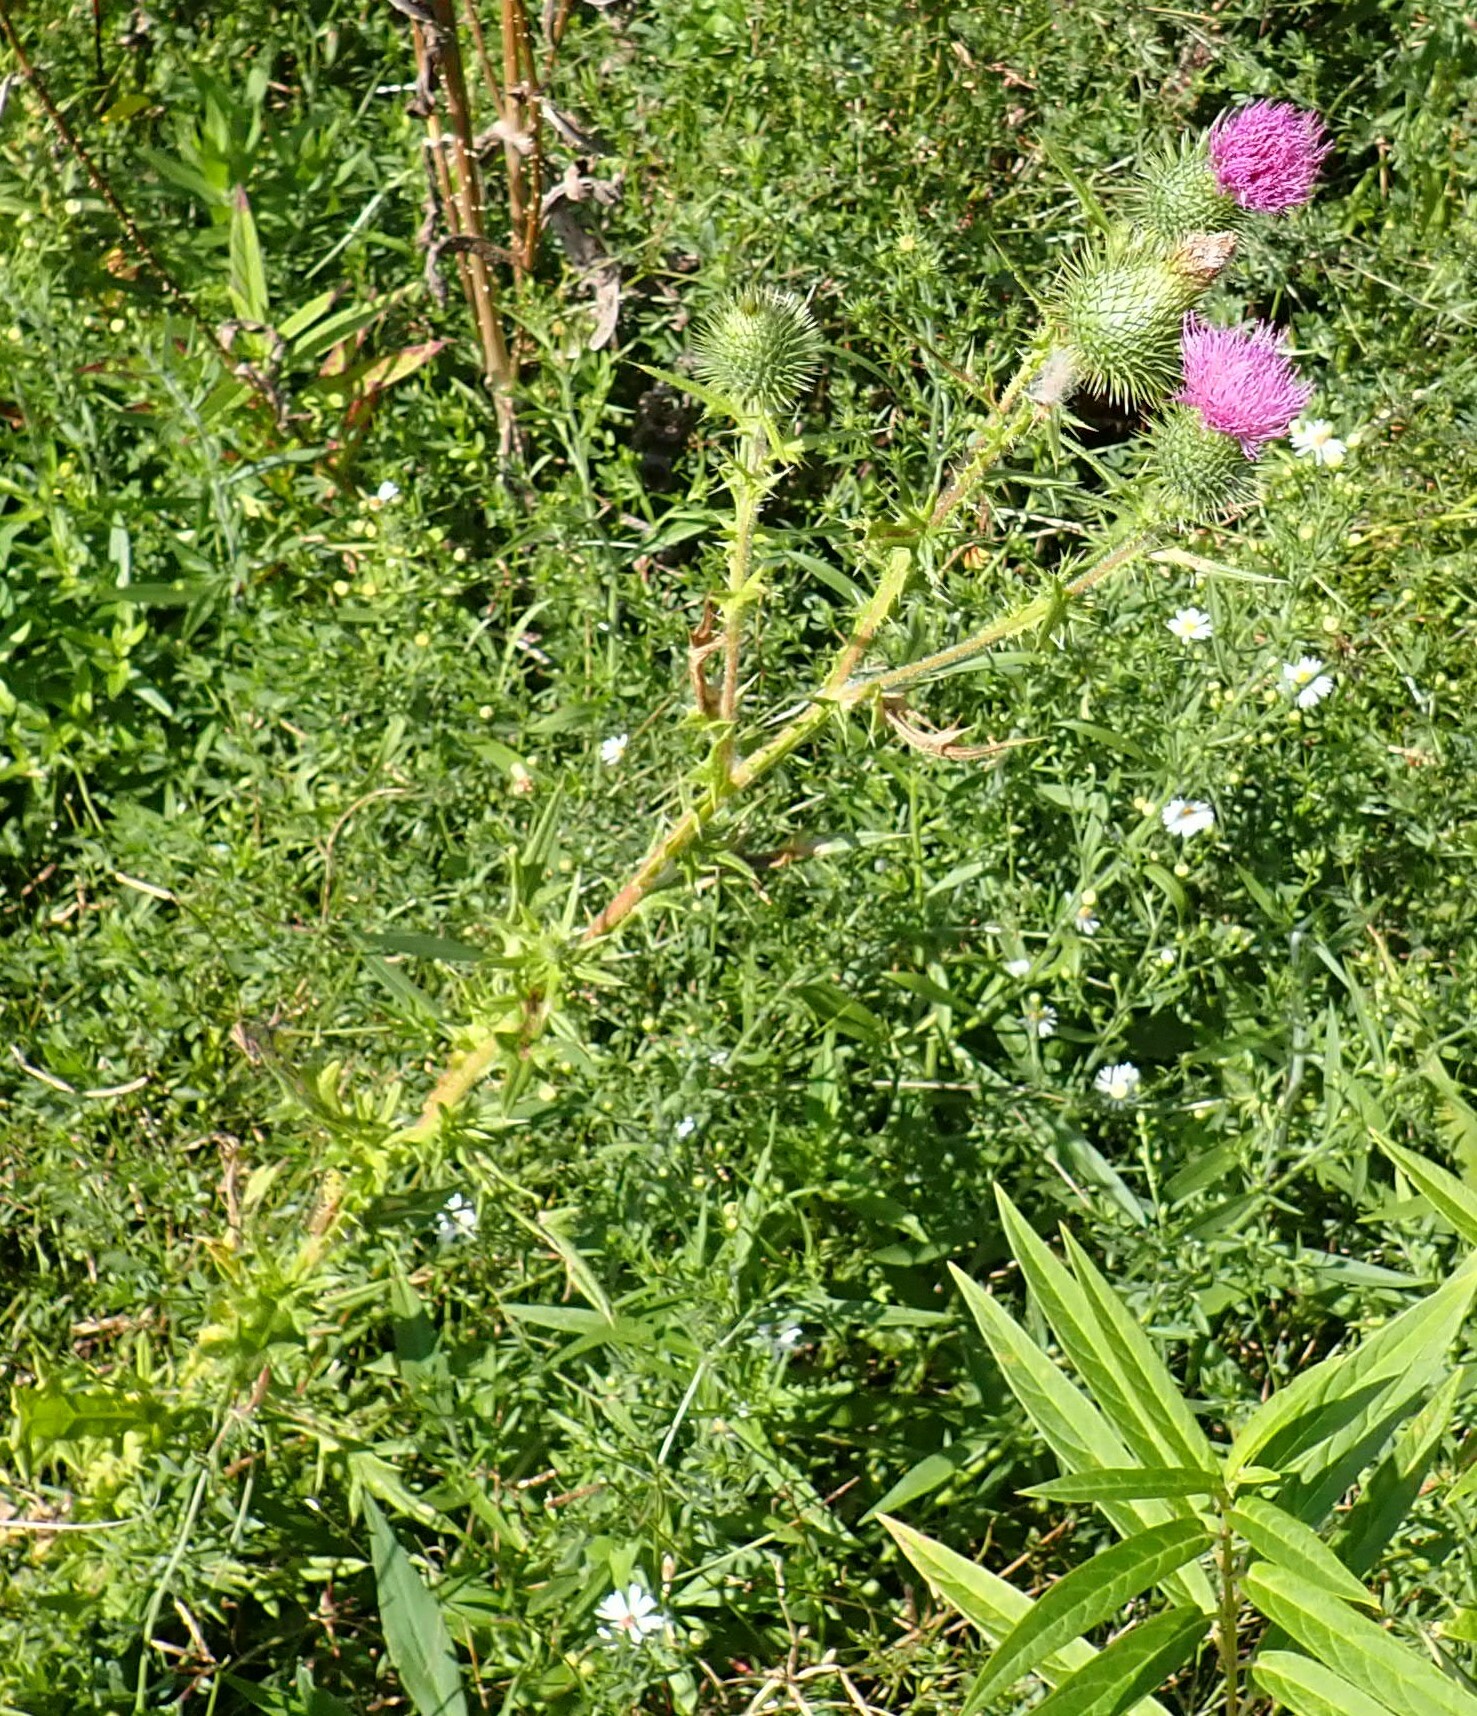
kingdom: Plantae
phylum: Tracheophyta
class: Magnoliopsida
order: Asterales
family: Asteraceae
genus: Cirsium
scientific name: Cirsium vulgare
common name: Bull thistle
